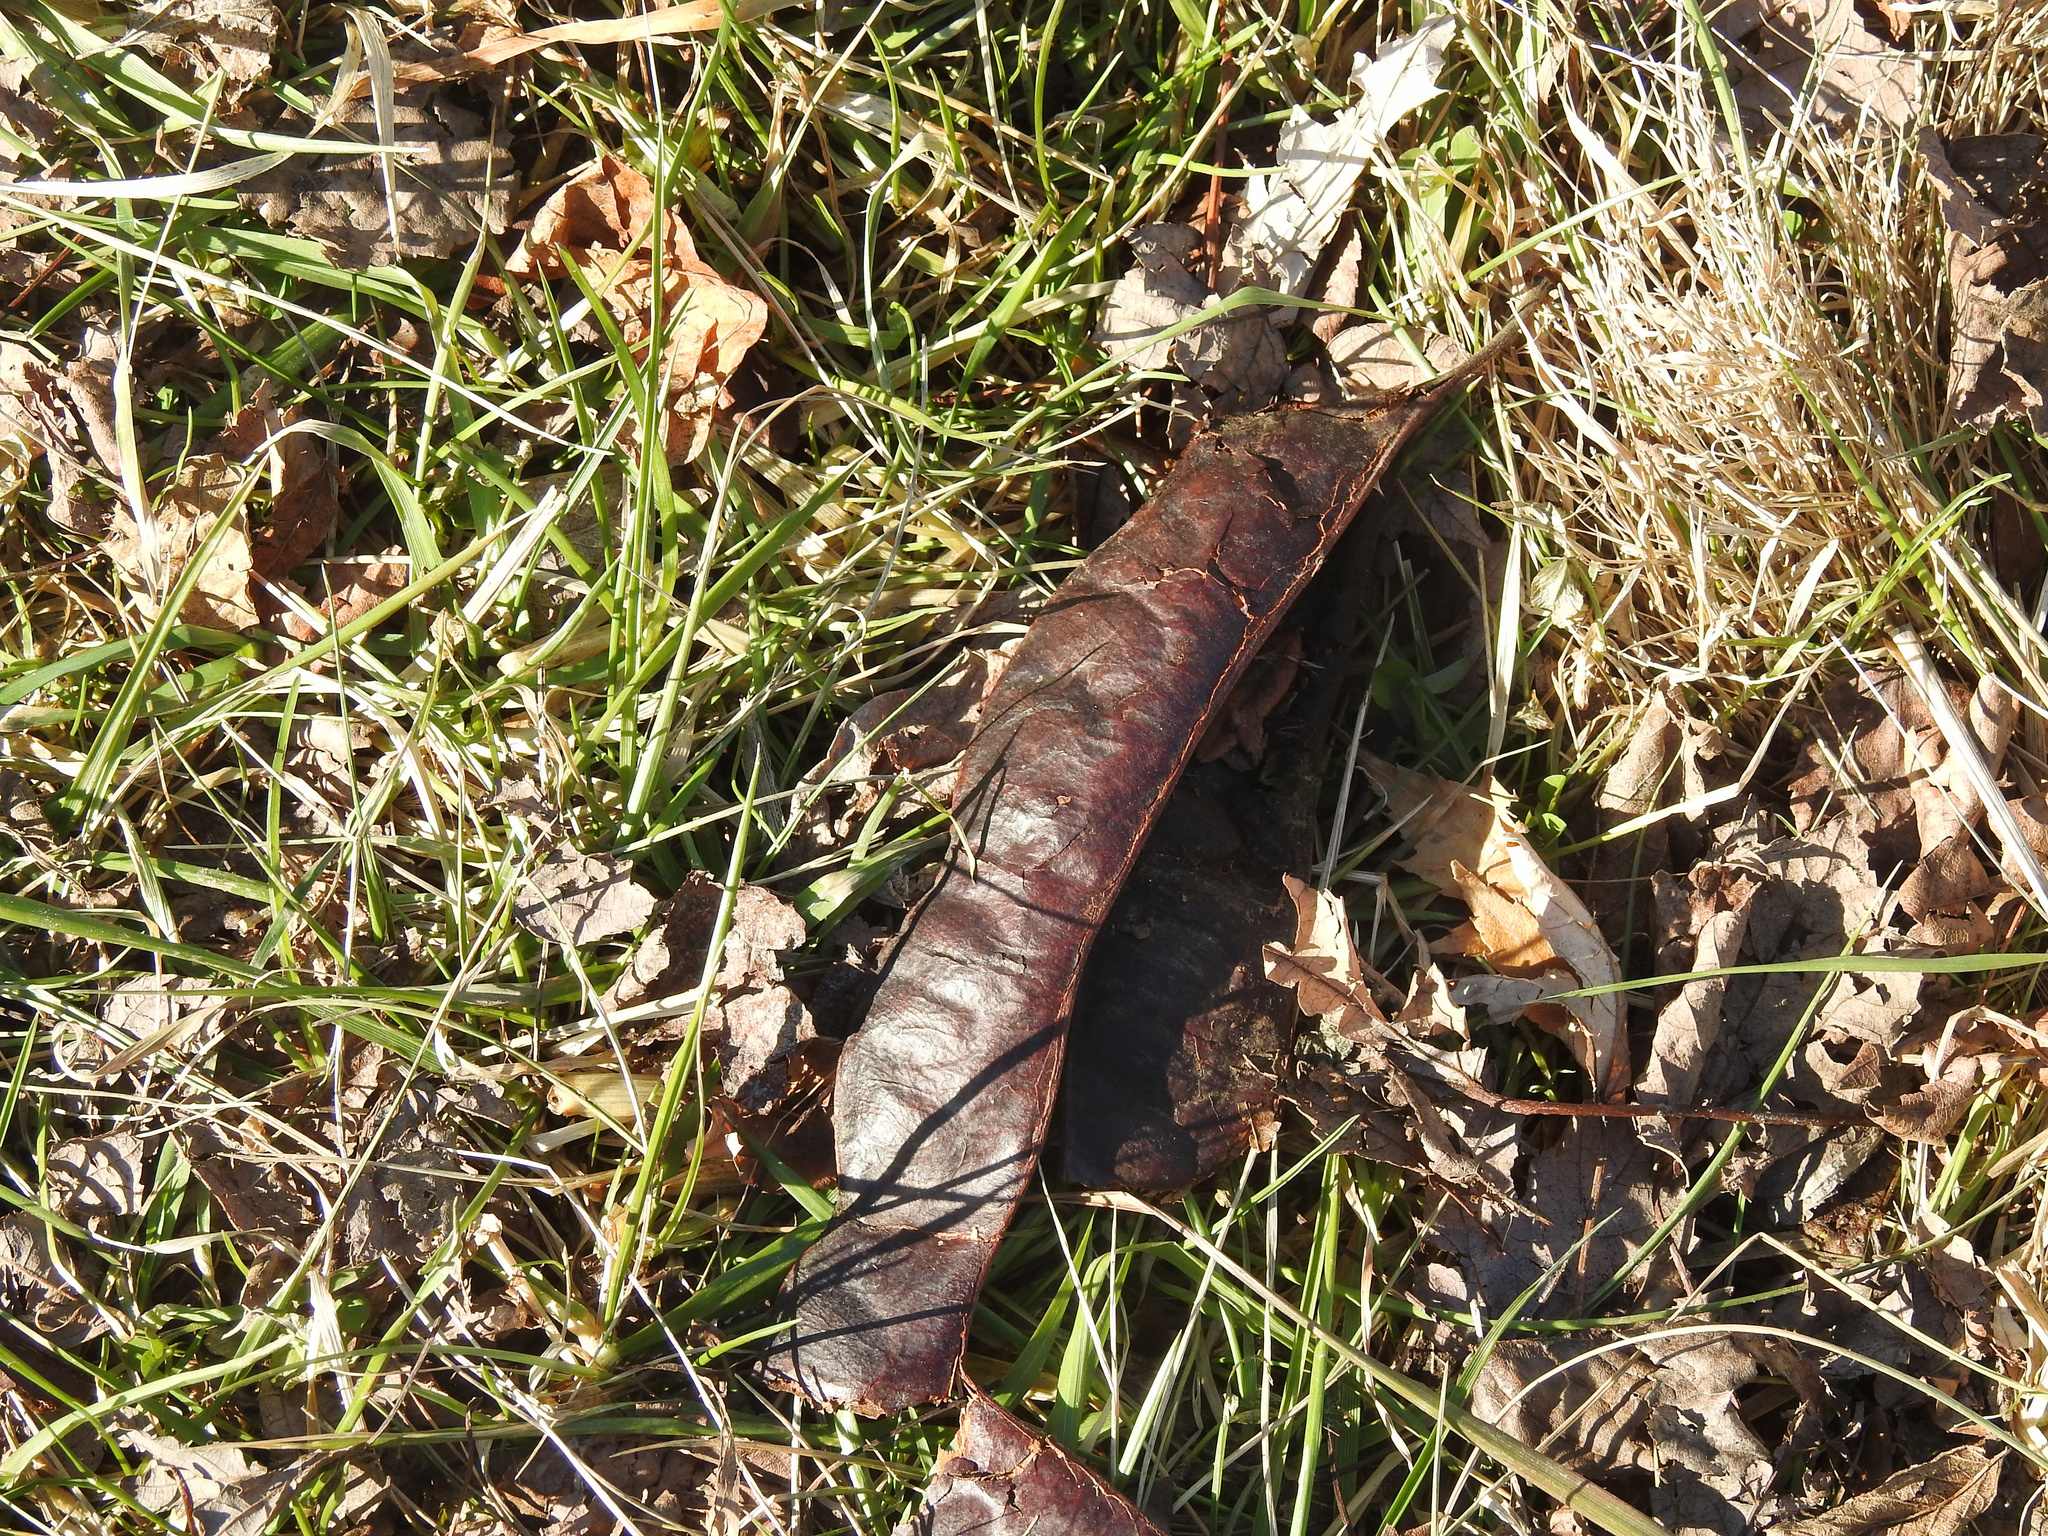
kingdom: Plantae
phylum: Tracheophyta
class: Magnoliopsida
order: Fabales
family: Fabaceae
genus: Gleditsia
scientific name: Gleditsia triacanthos
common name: Common honeylocust
